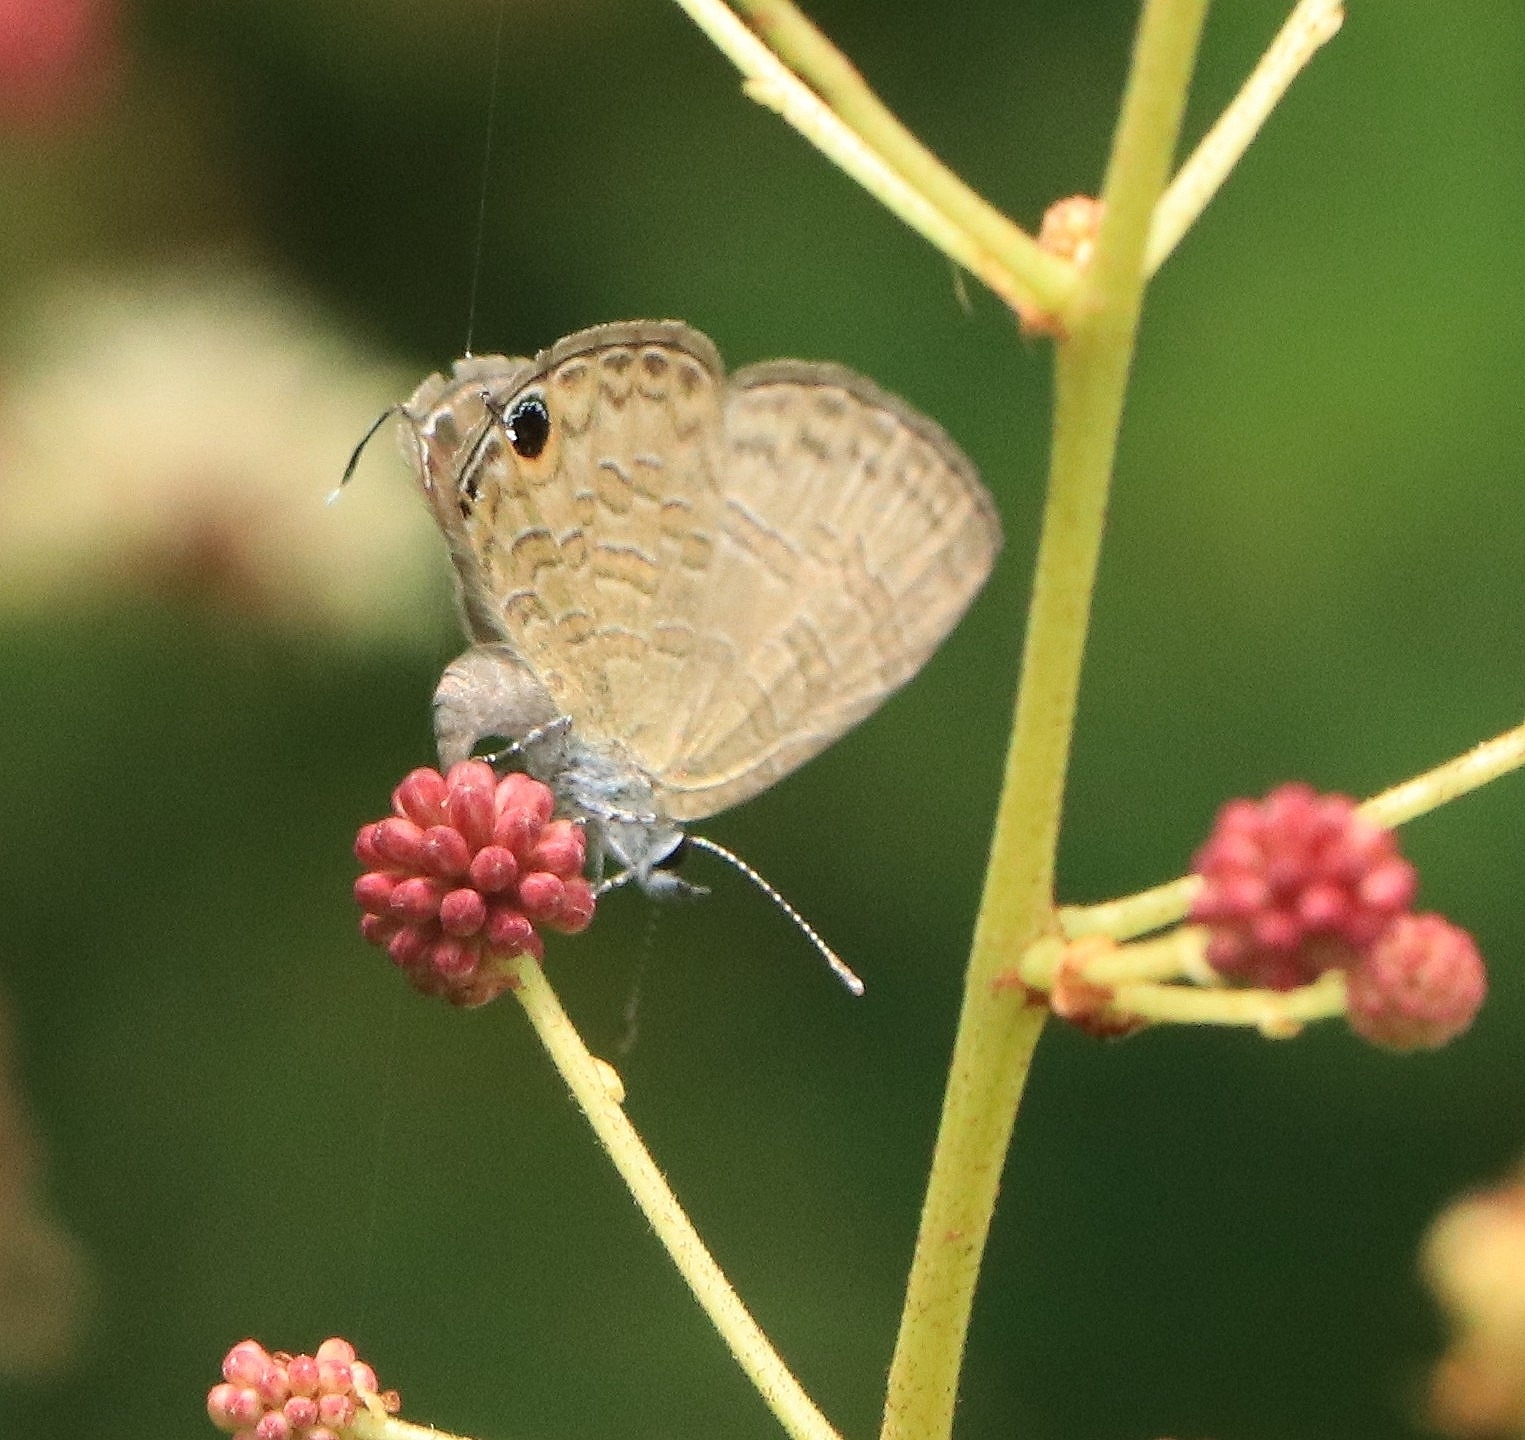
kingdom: Animalia
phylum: Arthropoda
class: Insecta
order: Lepidoptera
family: Lycaenidae
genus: Prosotas
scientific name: Prosotas nora
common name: Common line blue
